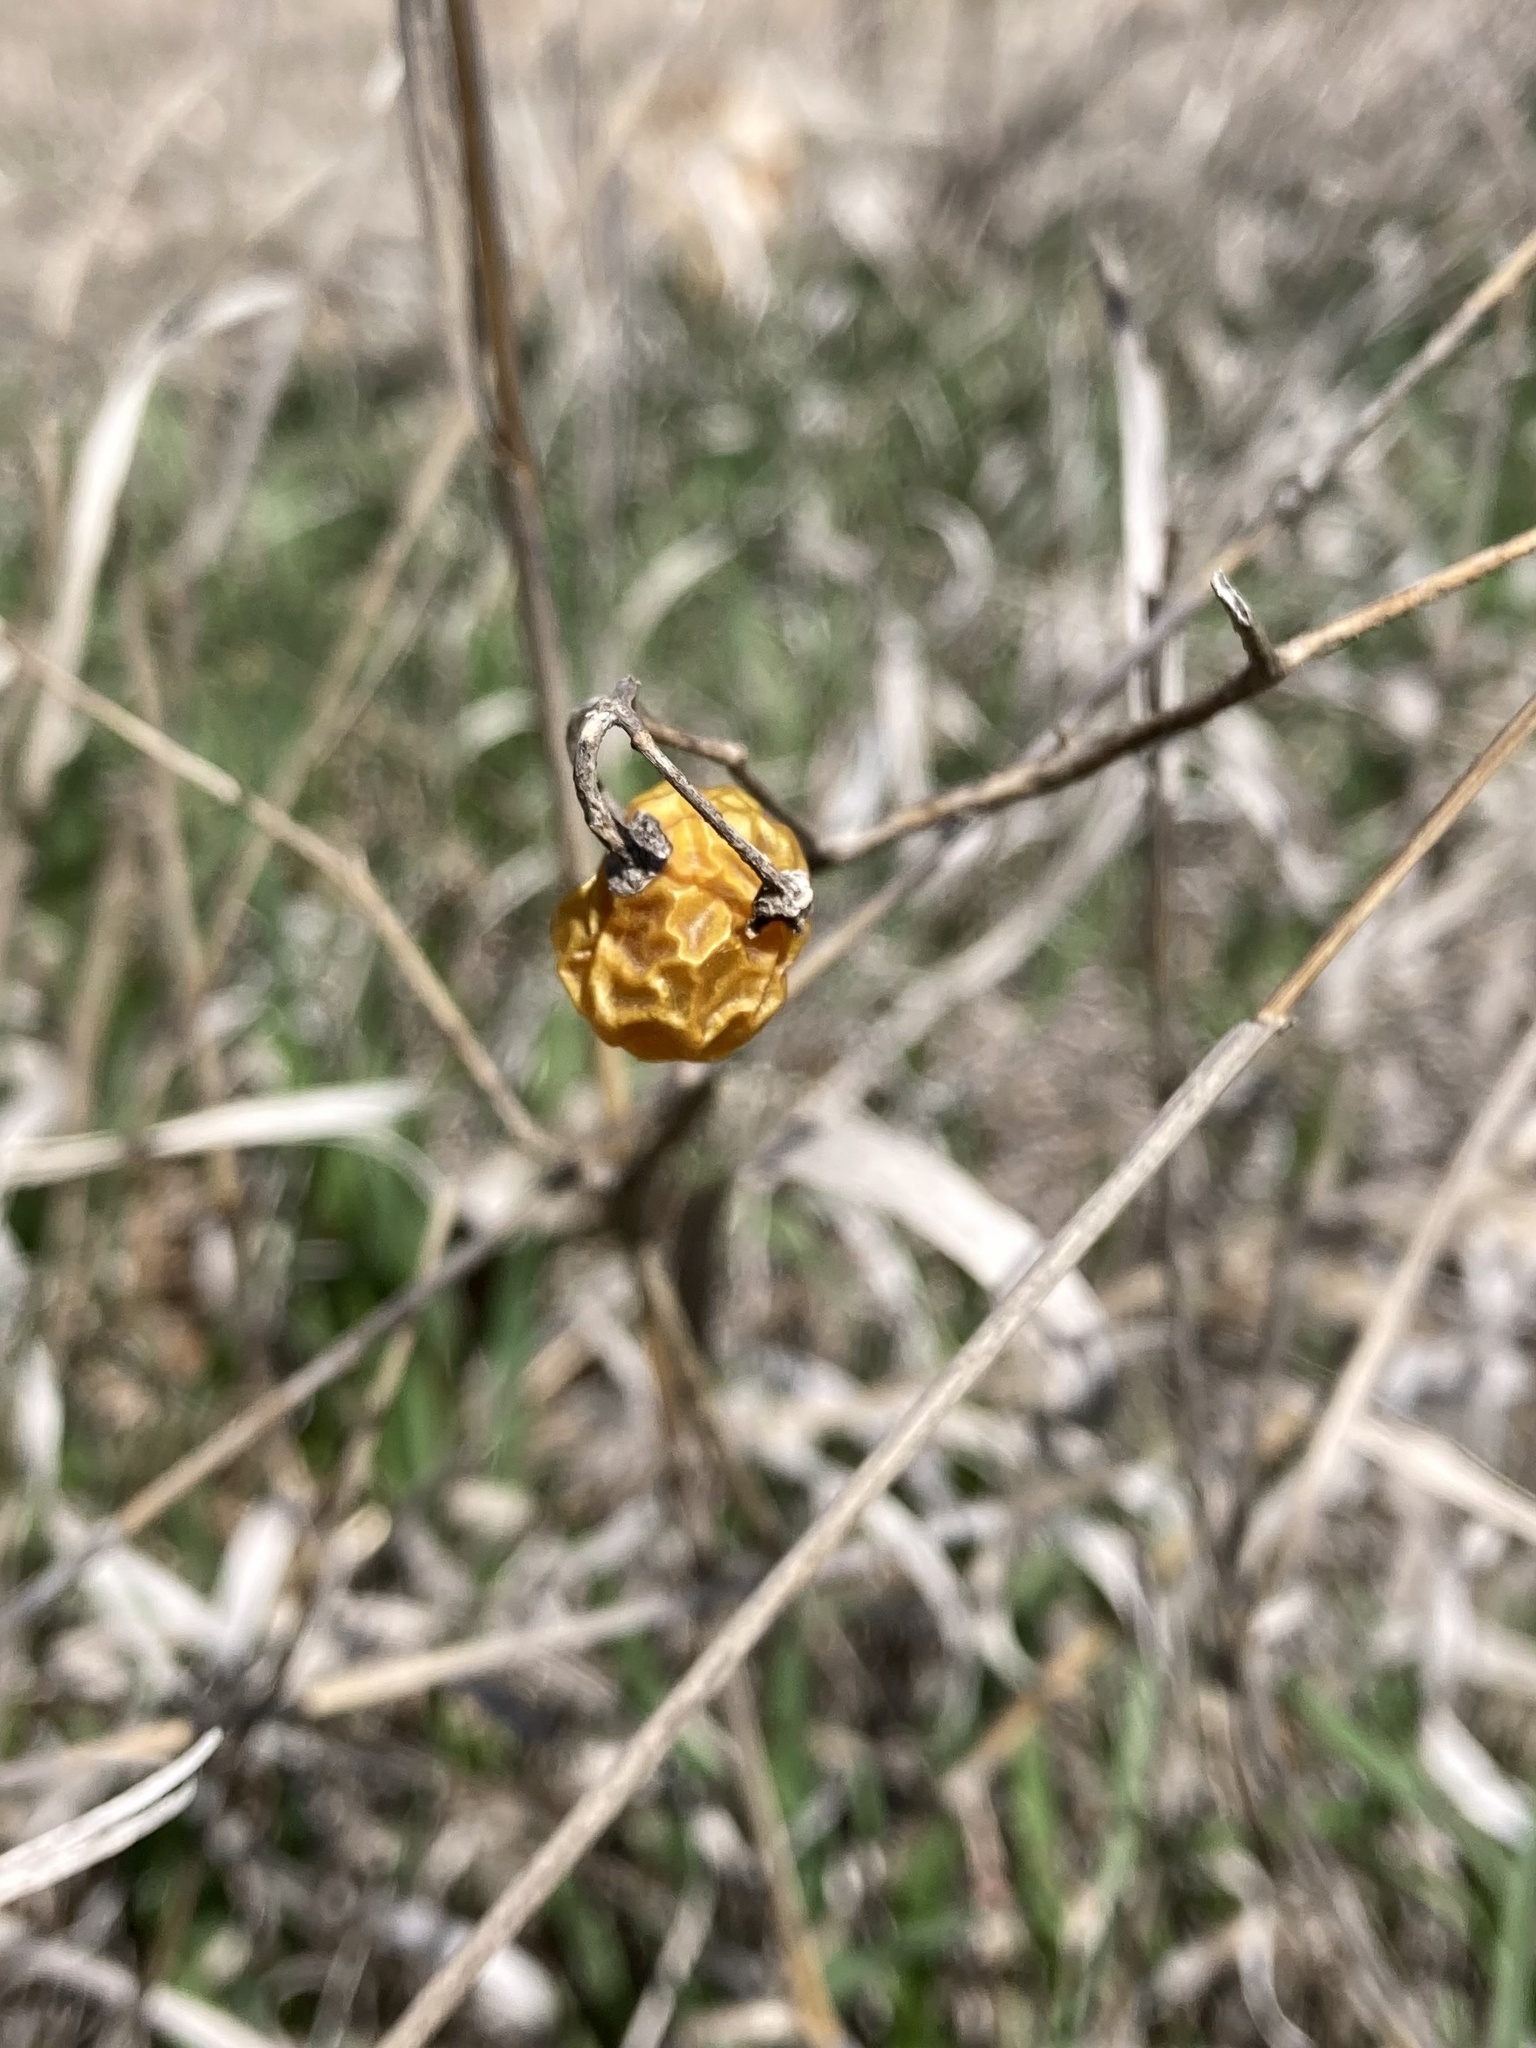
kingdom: Plantae
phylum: Tracheophyta
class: Magnoliopsida
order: Solanales
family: Solanaceae
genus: Solanum
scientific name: Solanum
